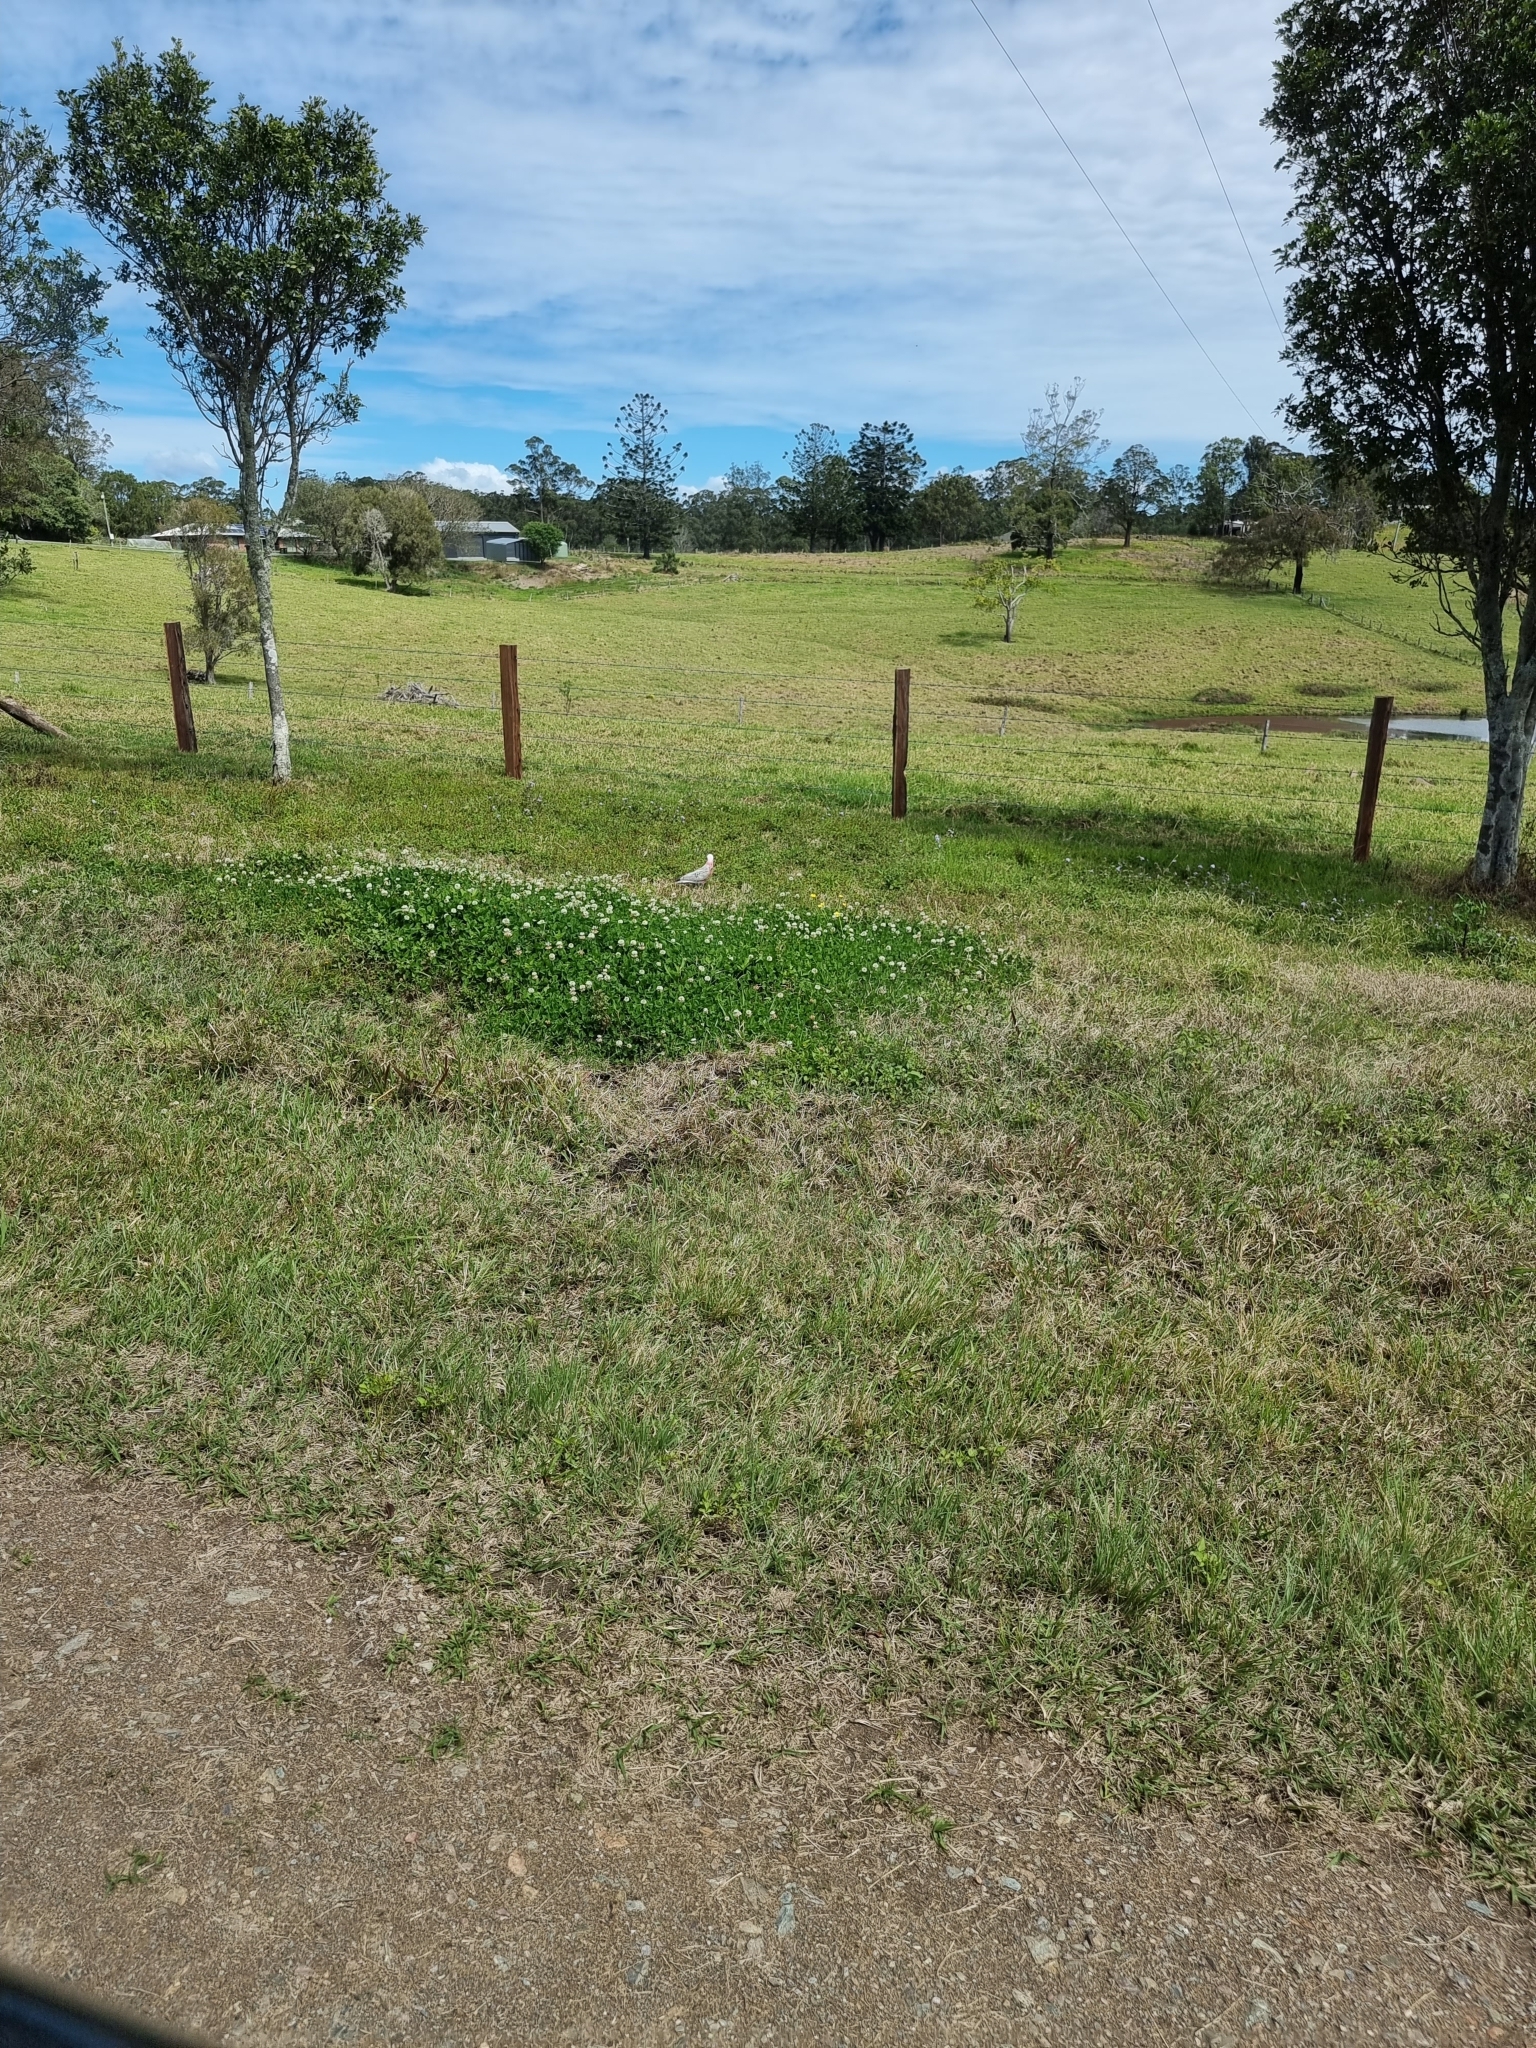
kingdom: Animalia
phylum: Chordata
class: Aves
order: Psittaciformes
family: Psittacidae
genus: Eolophus
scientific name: Eolophus roseicapilla
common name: Galah
